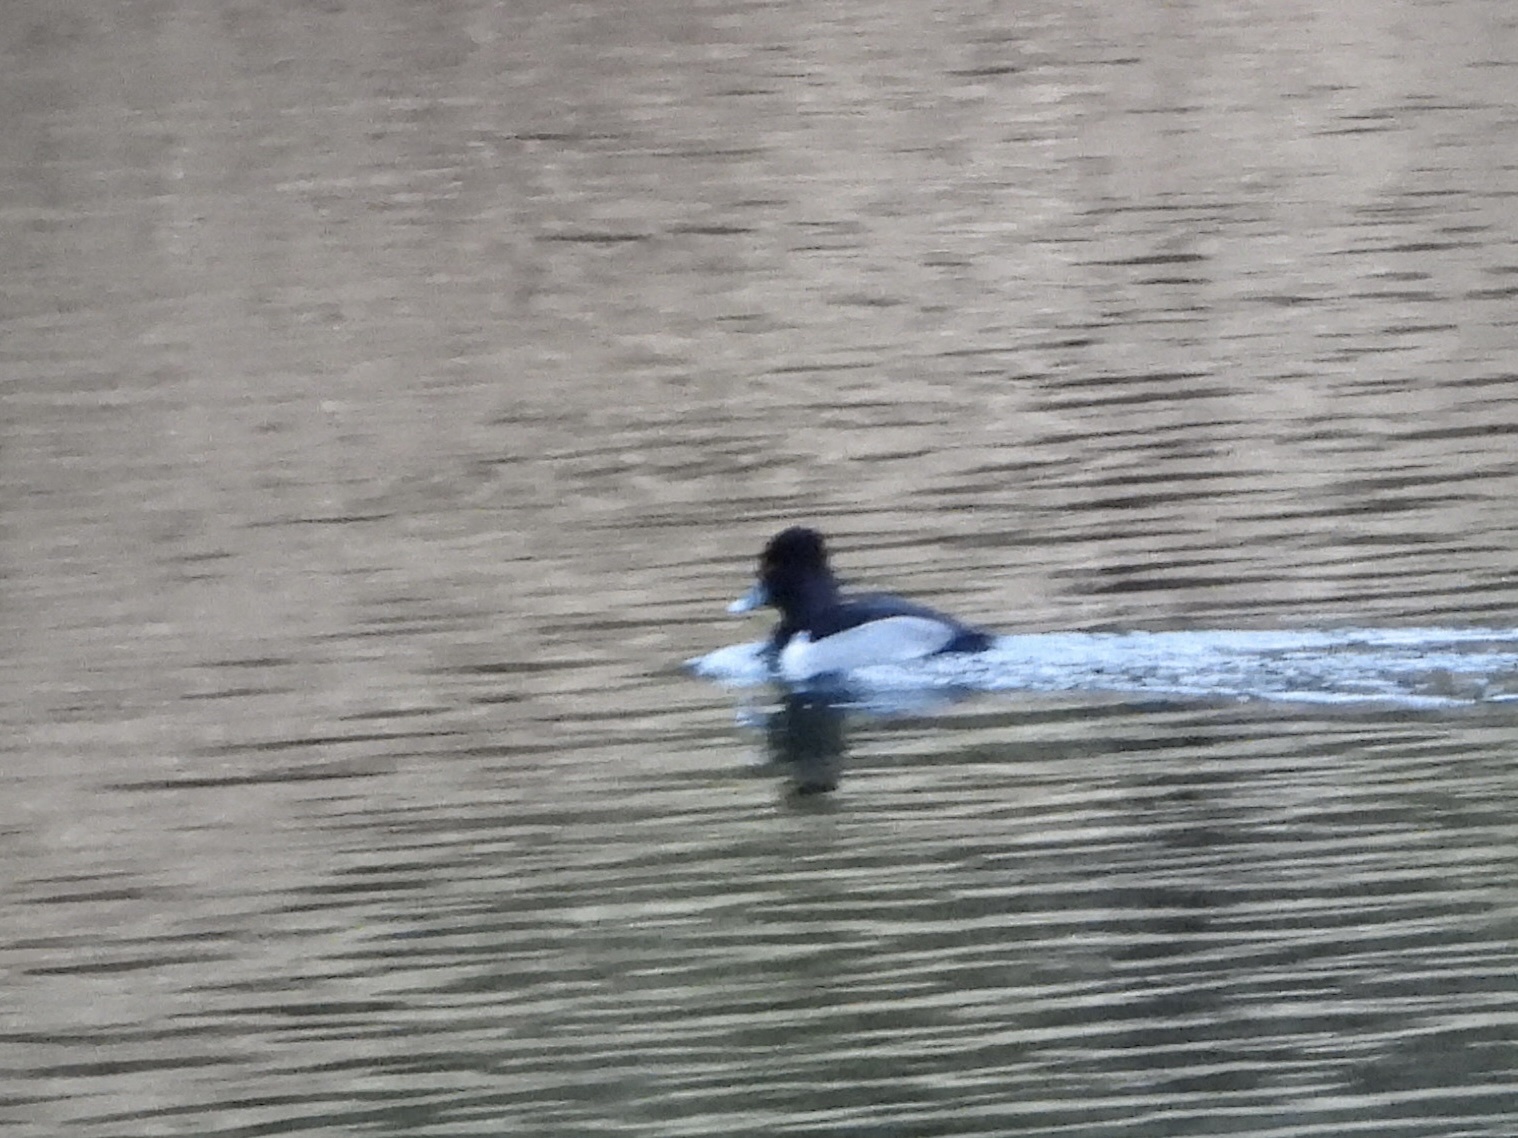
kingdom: Animalia
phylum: Chordata
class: Aves
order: Anseriformes
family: Anatidae
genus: Aythya
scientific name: Aythya collaris
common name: Ring-necked duck
